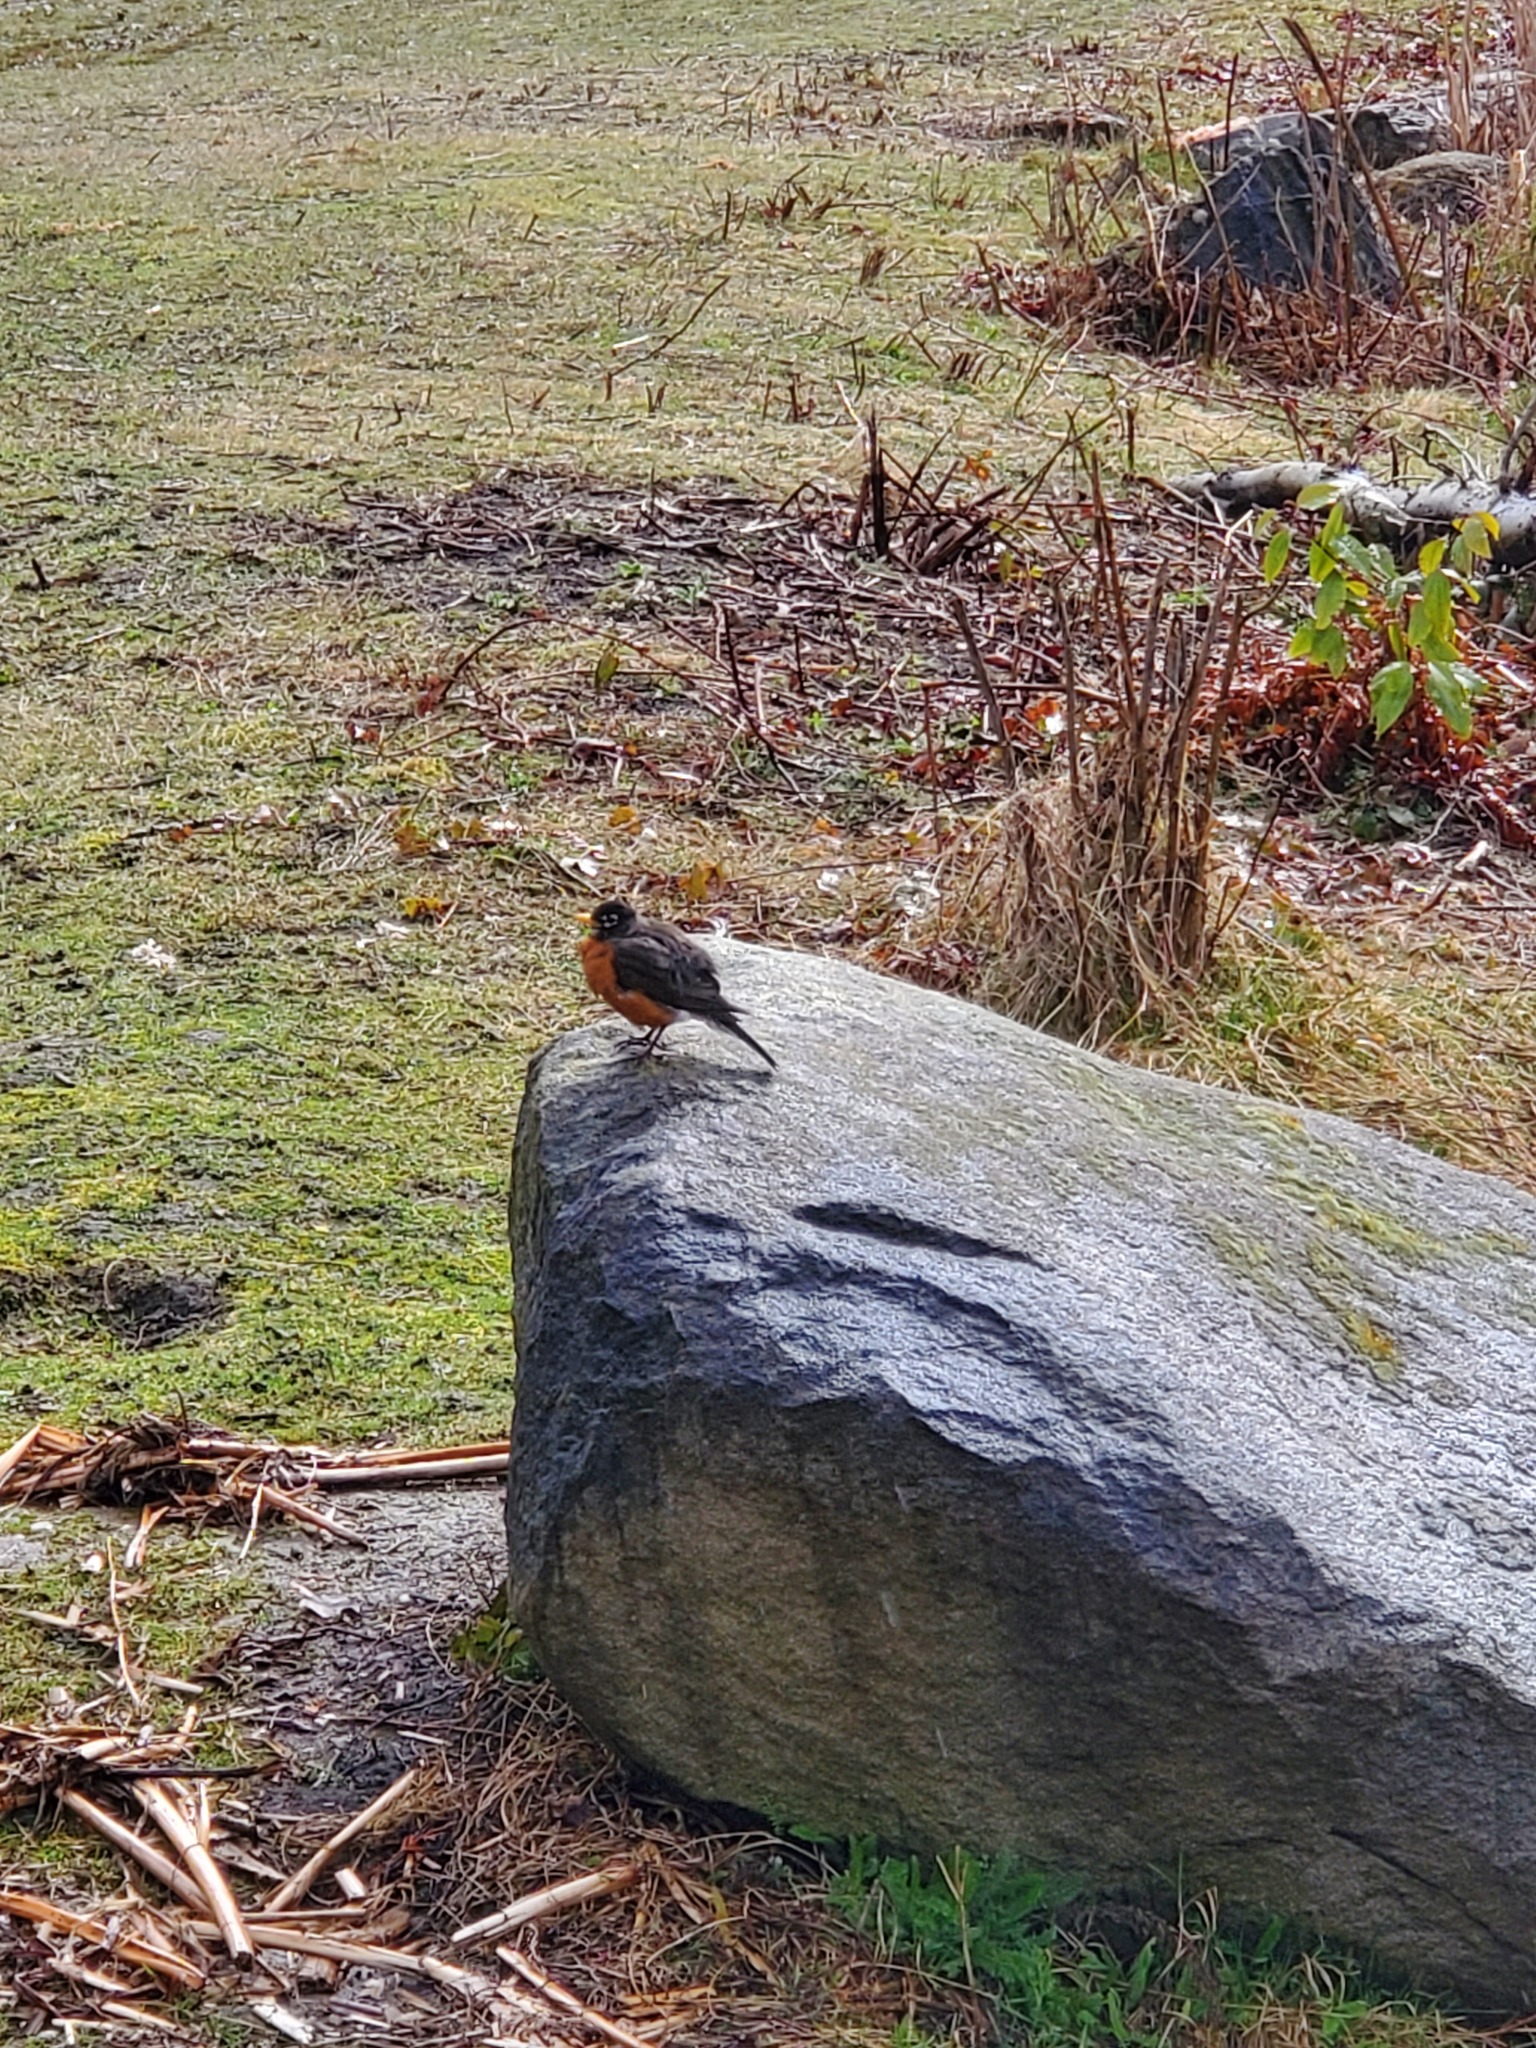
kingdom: Animalia
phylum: Chordata
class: Aves
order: Passeriformes
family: Turdidae
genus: Turdus
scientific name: Turdus migratorius
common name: American robin
